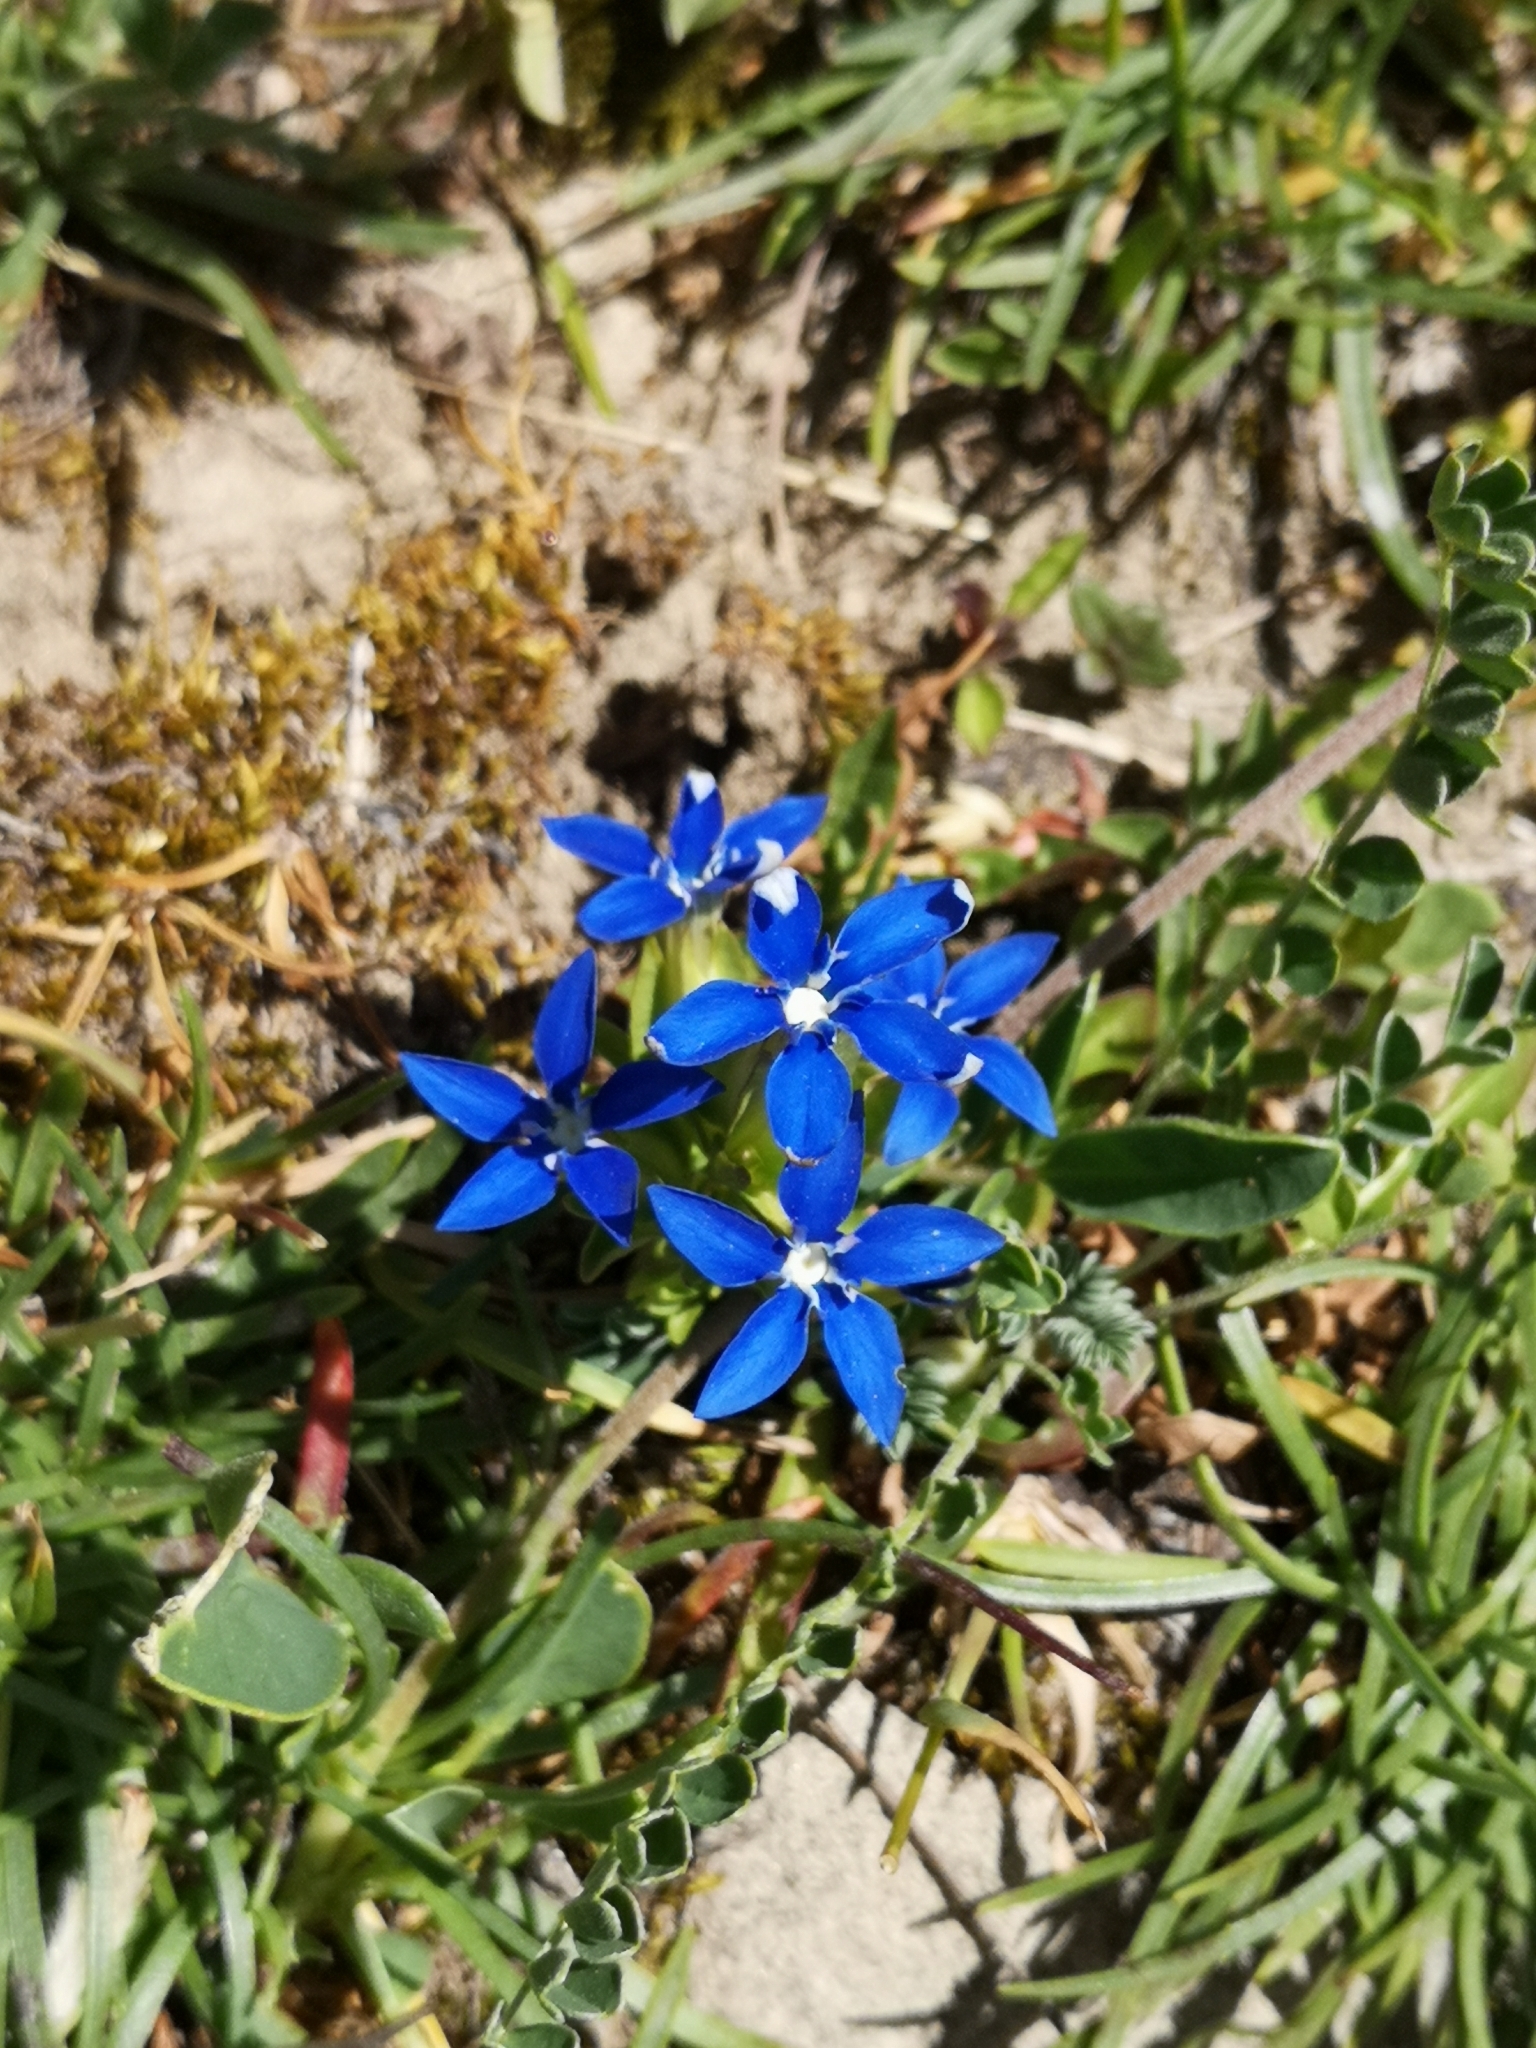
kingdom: Plantae
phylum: Tracheophyta
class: Magnoliopsida
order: Gentianales
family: Gentianaceae
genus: Gentiana
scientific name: Gentiana utriculosa
